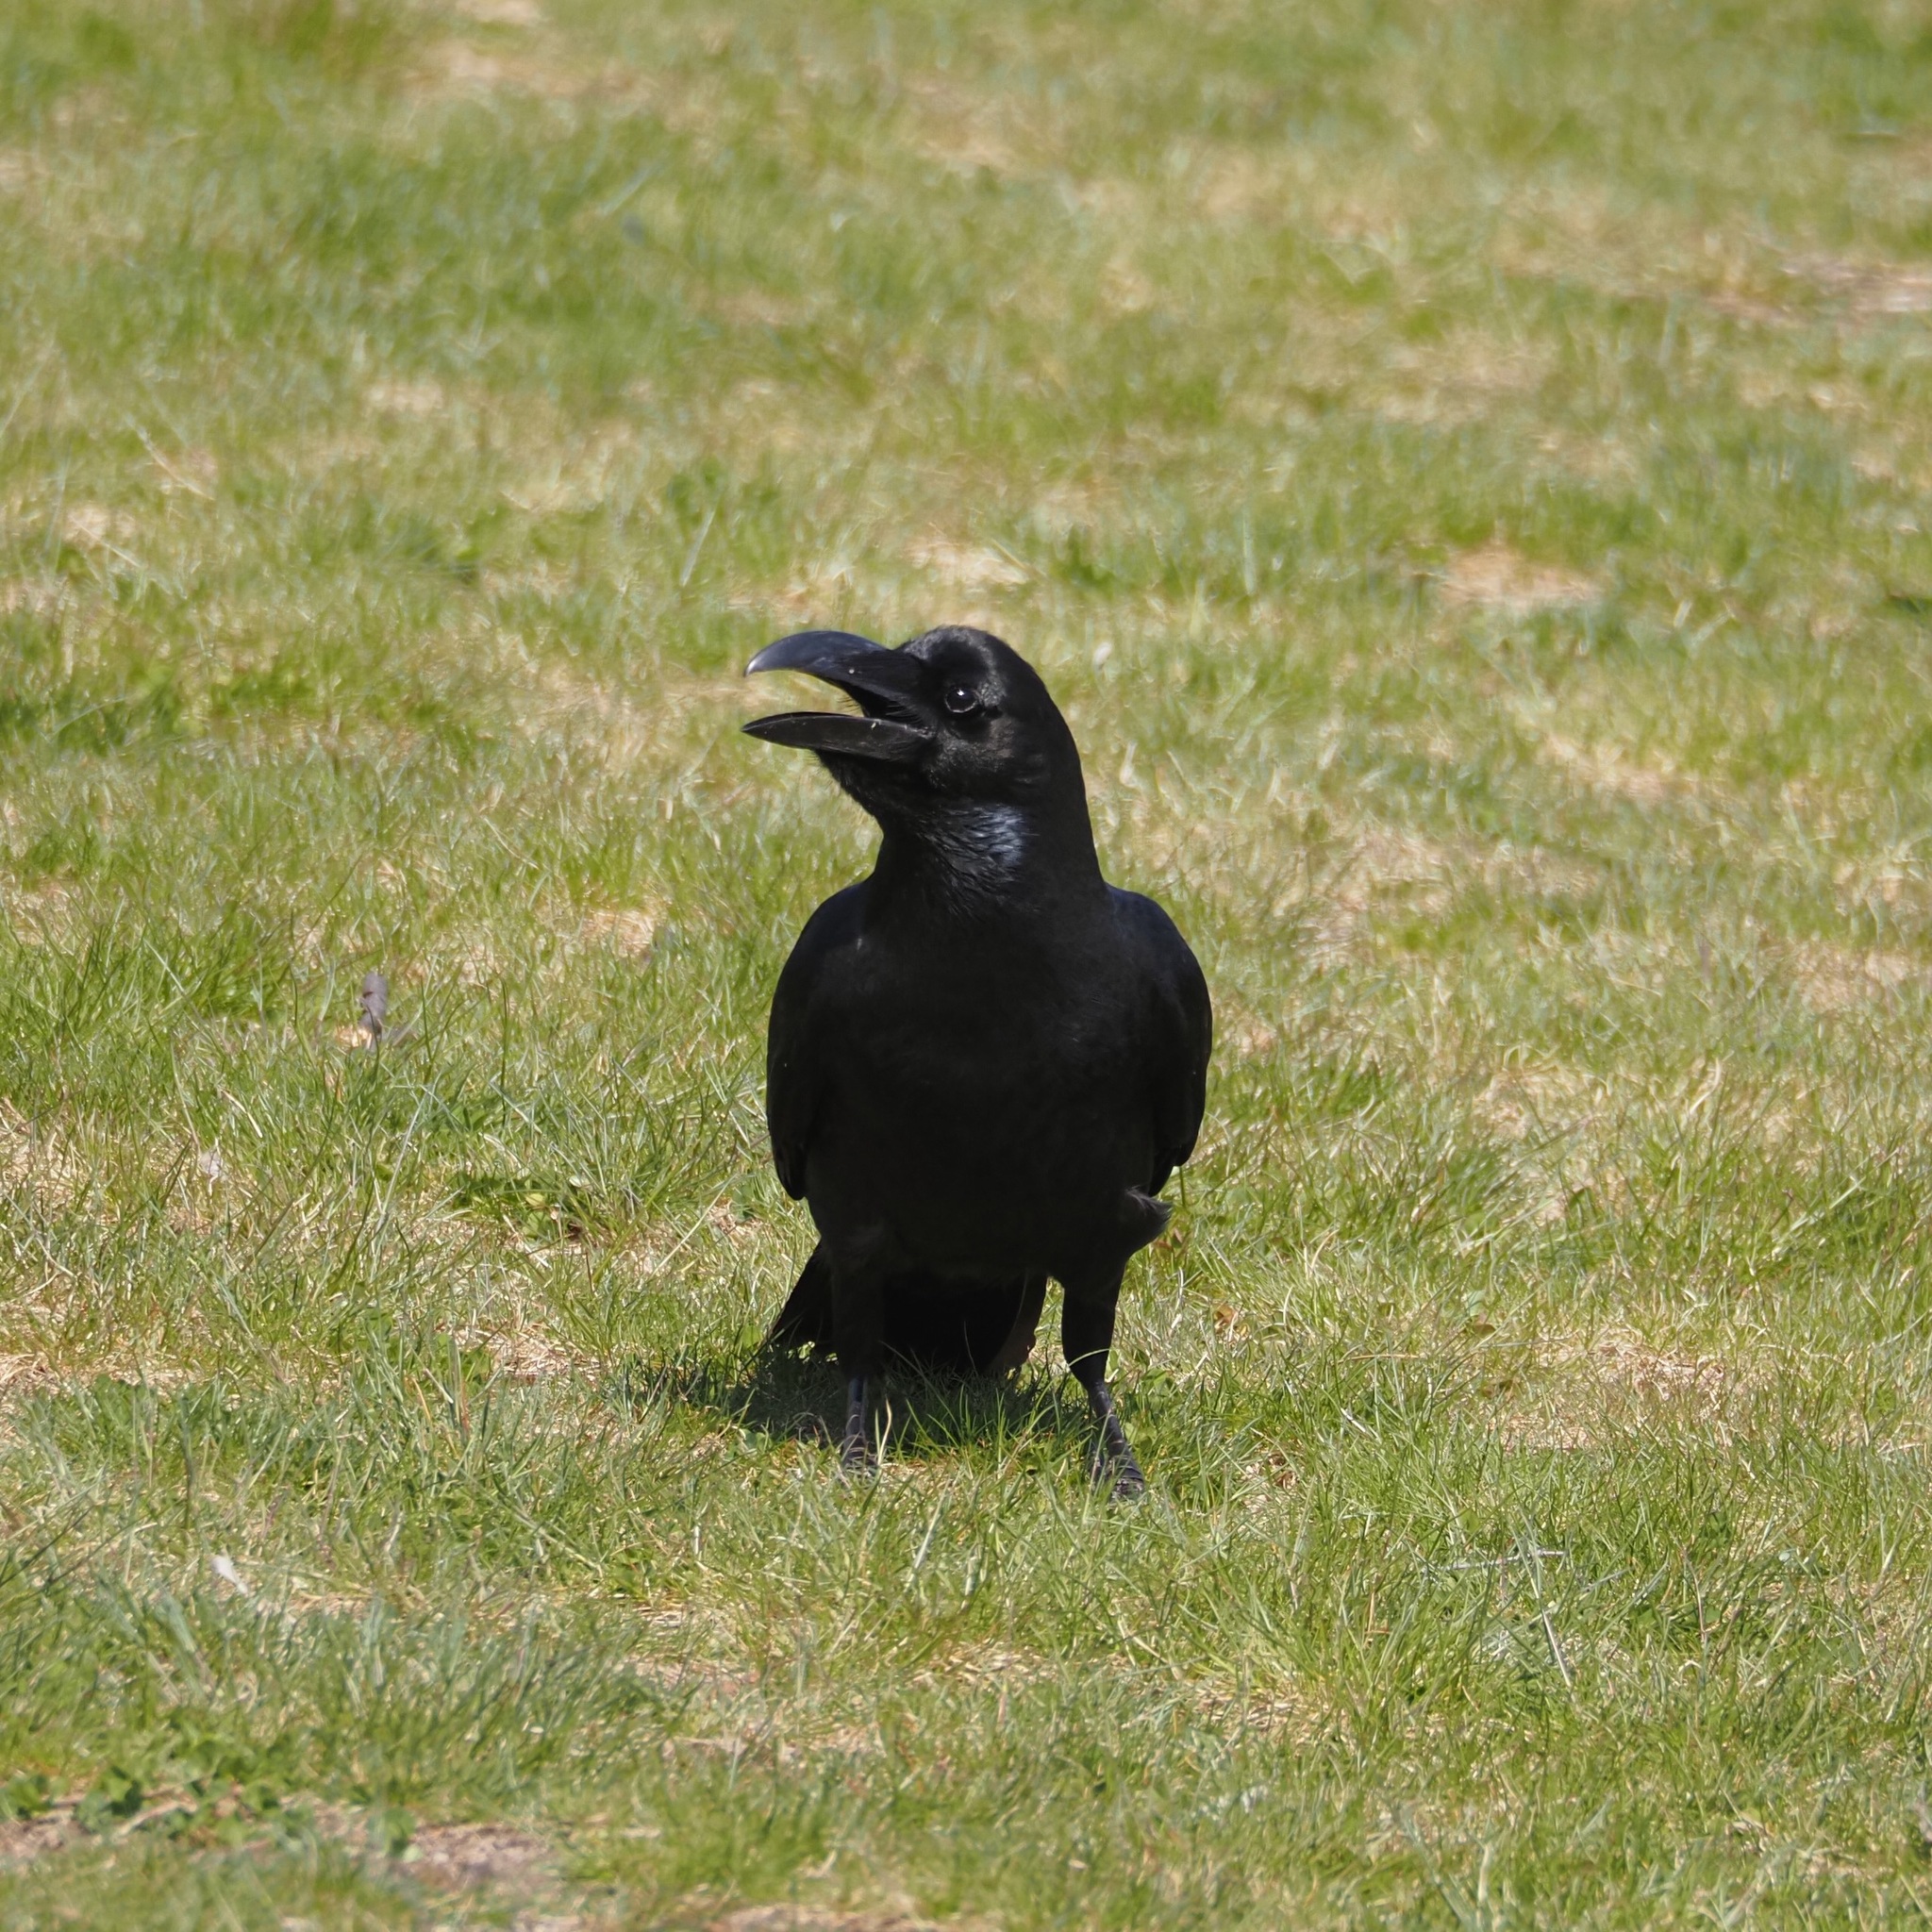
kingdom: Animalia
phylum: Chordata
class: Aves
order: Passeriformes
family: Corvidae
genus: Corvus
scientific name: Corvus macrorhynchos
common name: Large-billed crow
